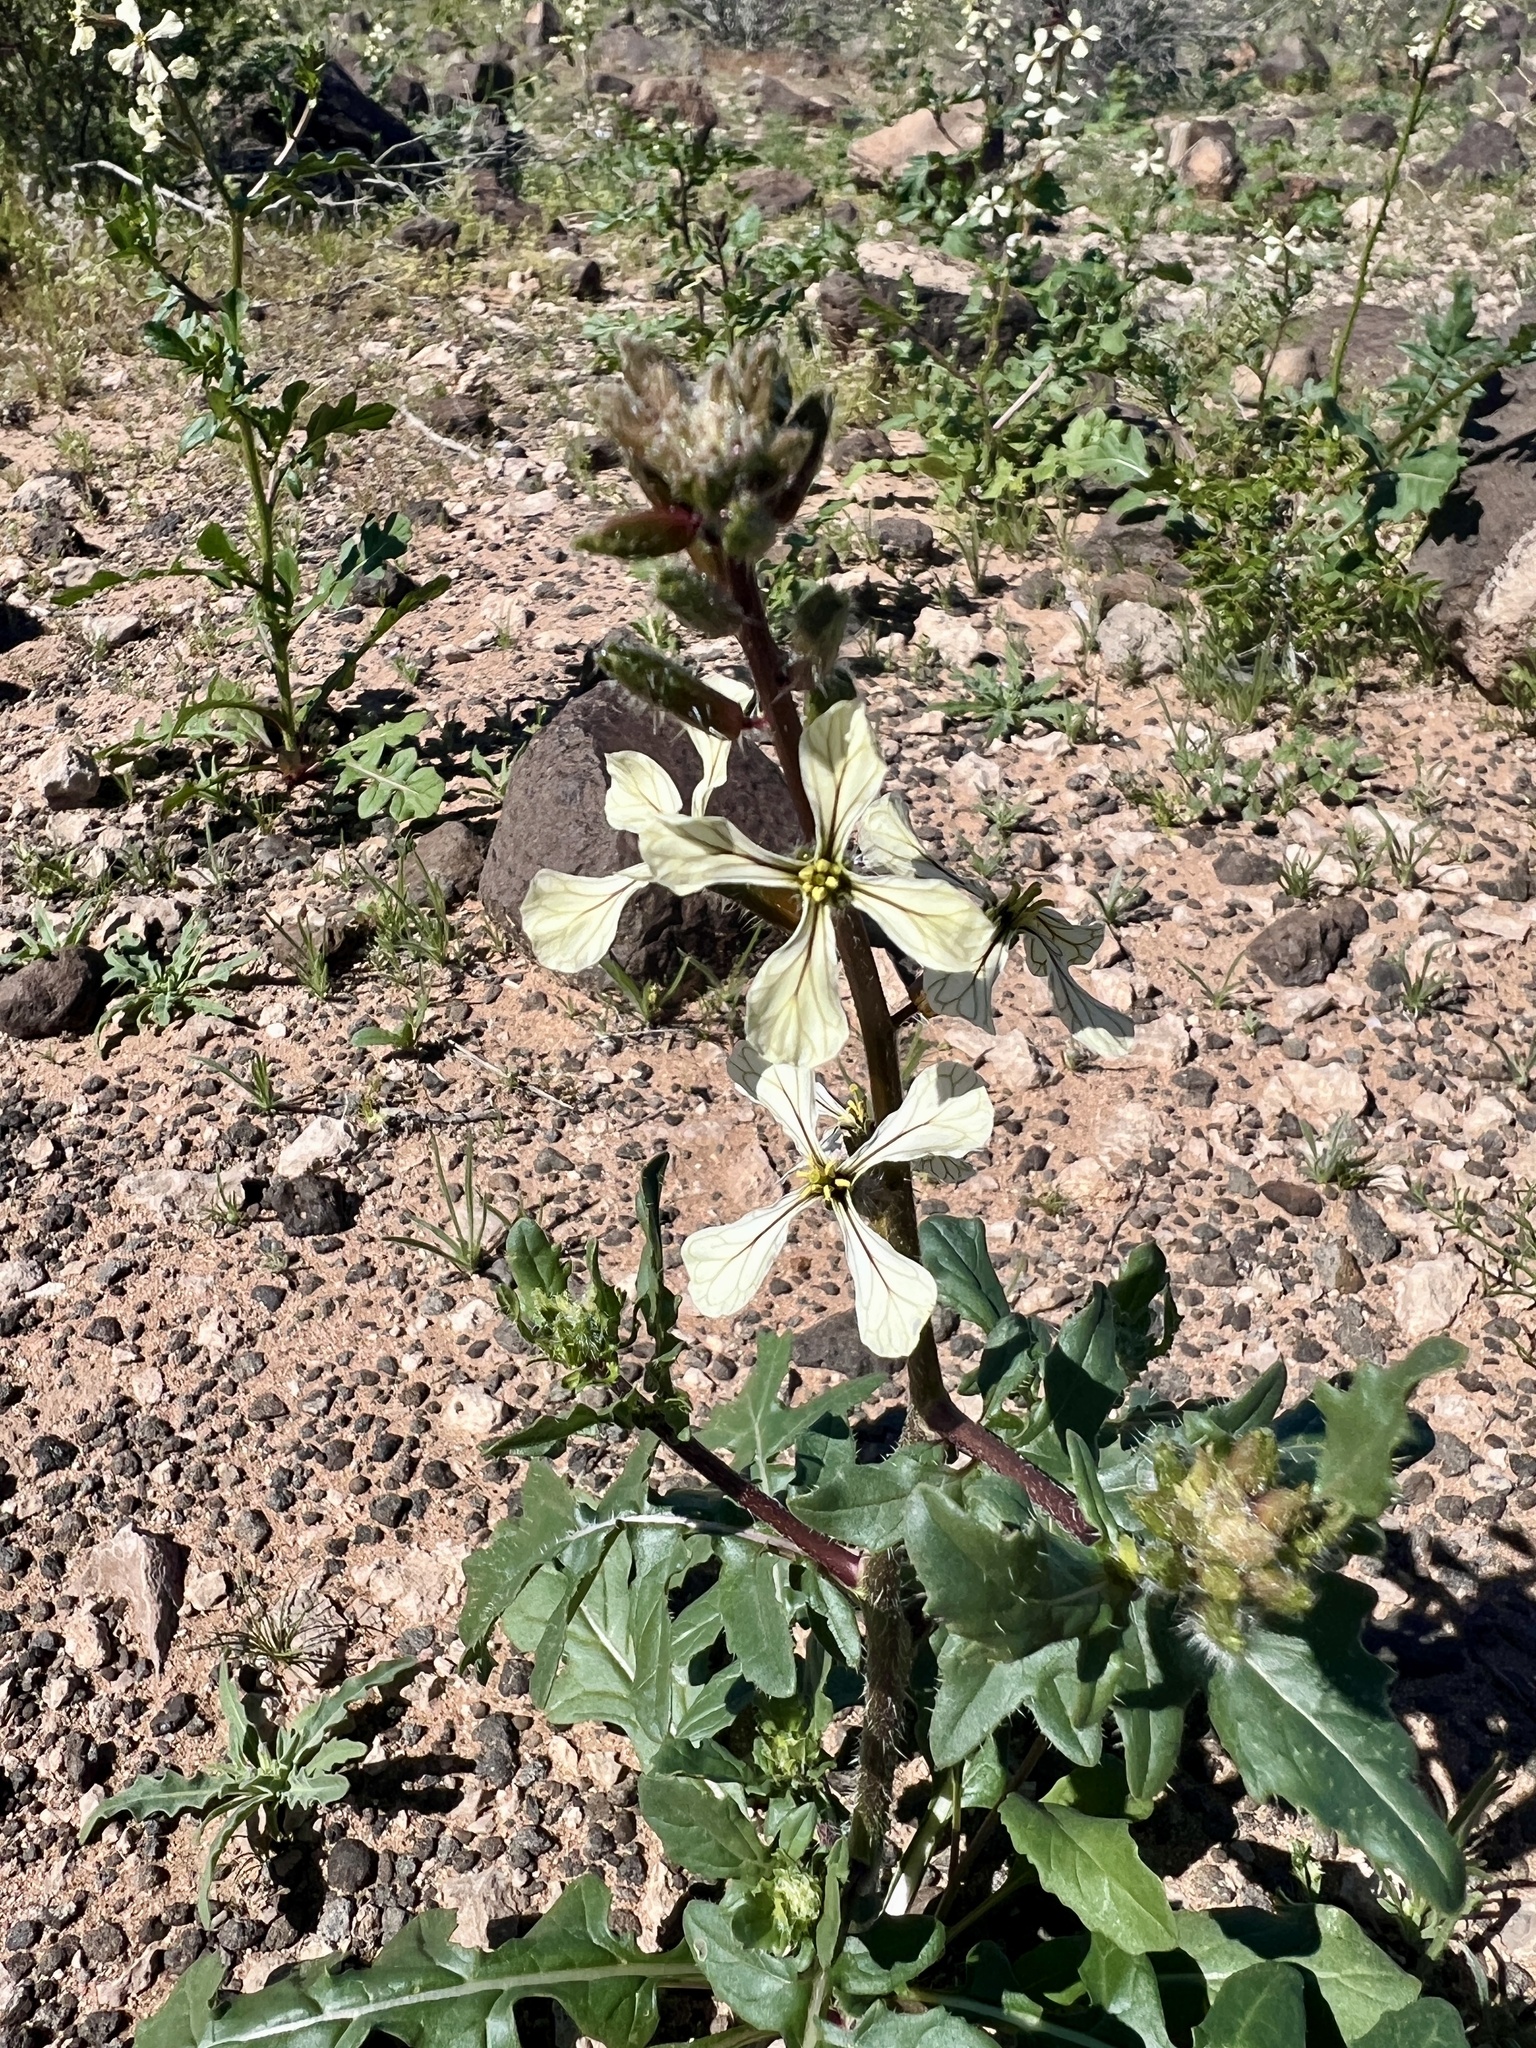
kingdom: Plantae
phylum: Tracheophyta
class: Magnoliopsida
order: Brassicales
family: Brassicaceae
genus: Eruca
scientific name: Eruca vesicaria
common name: Garden rocket
